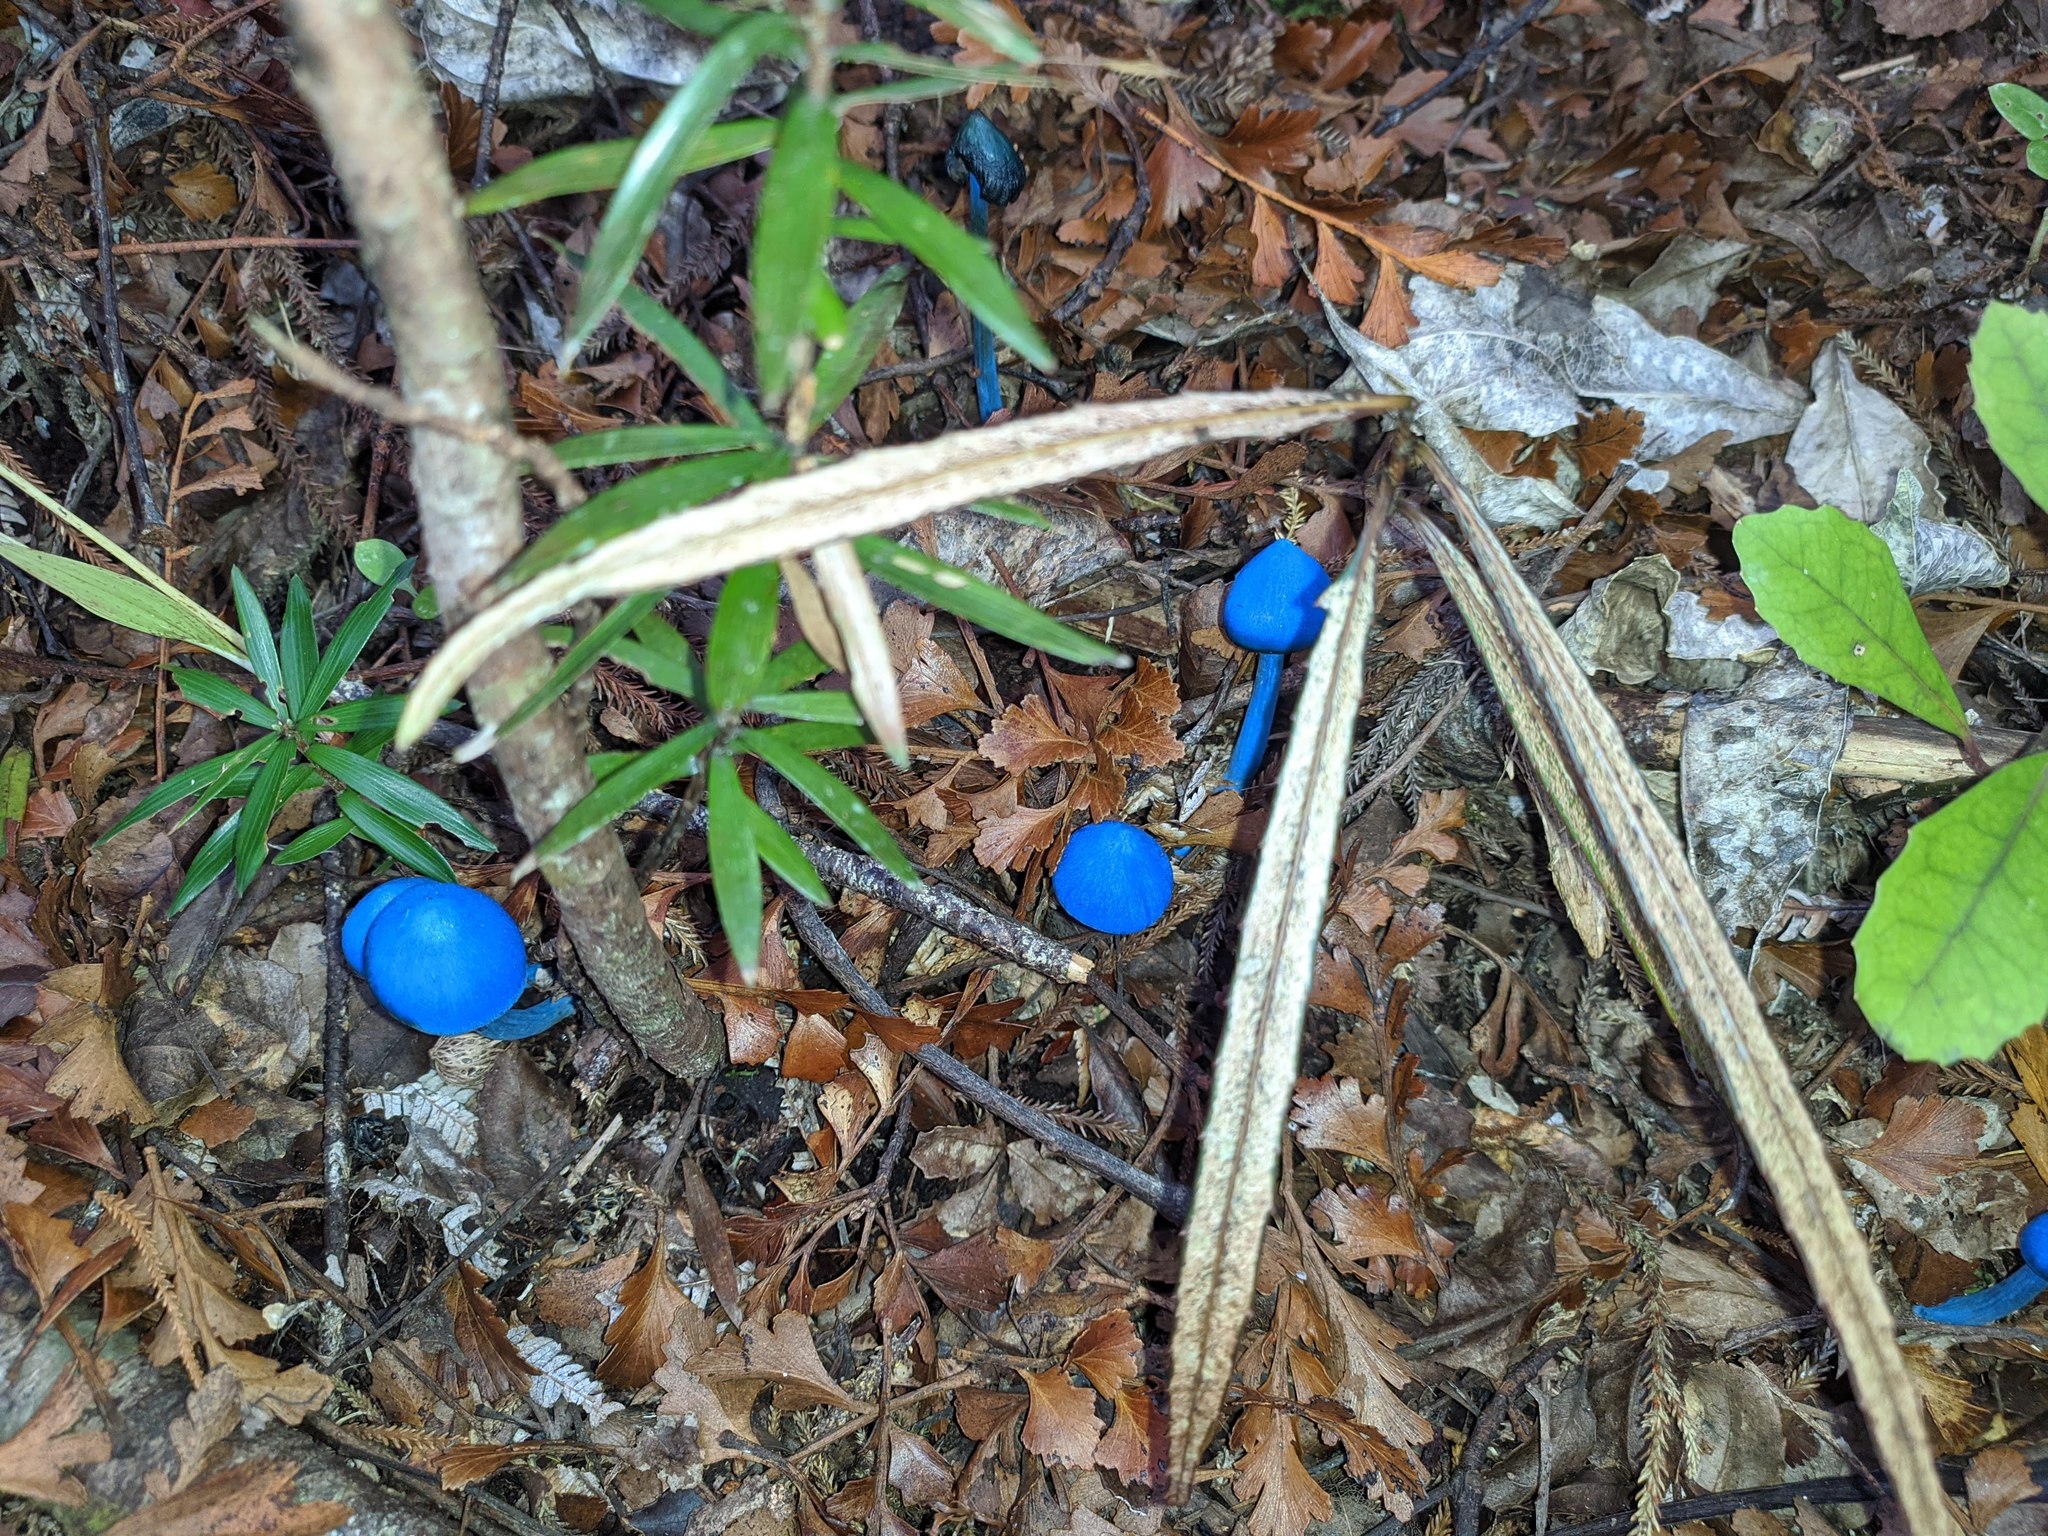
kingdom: Fungi
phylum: Basidiomycota
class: Agaricomycetes
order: Agaricales
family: Entolomataceae
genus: Entoloma
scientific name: Entoloma hochstetteri
